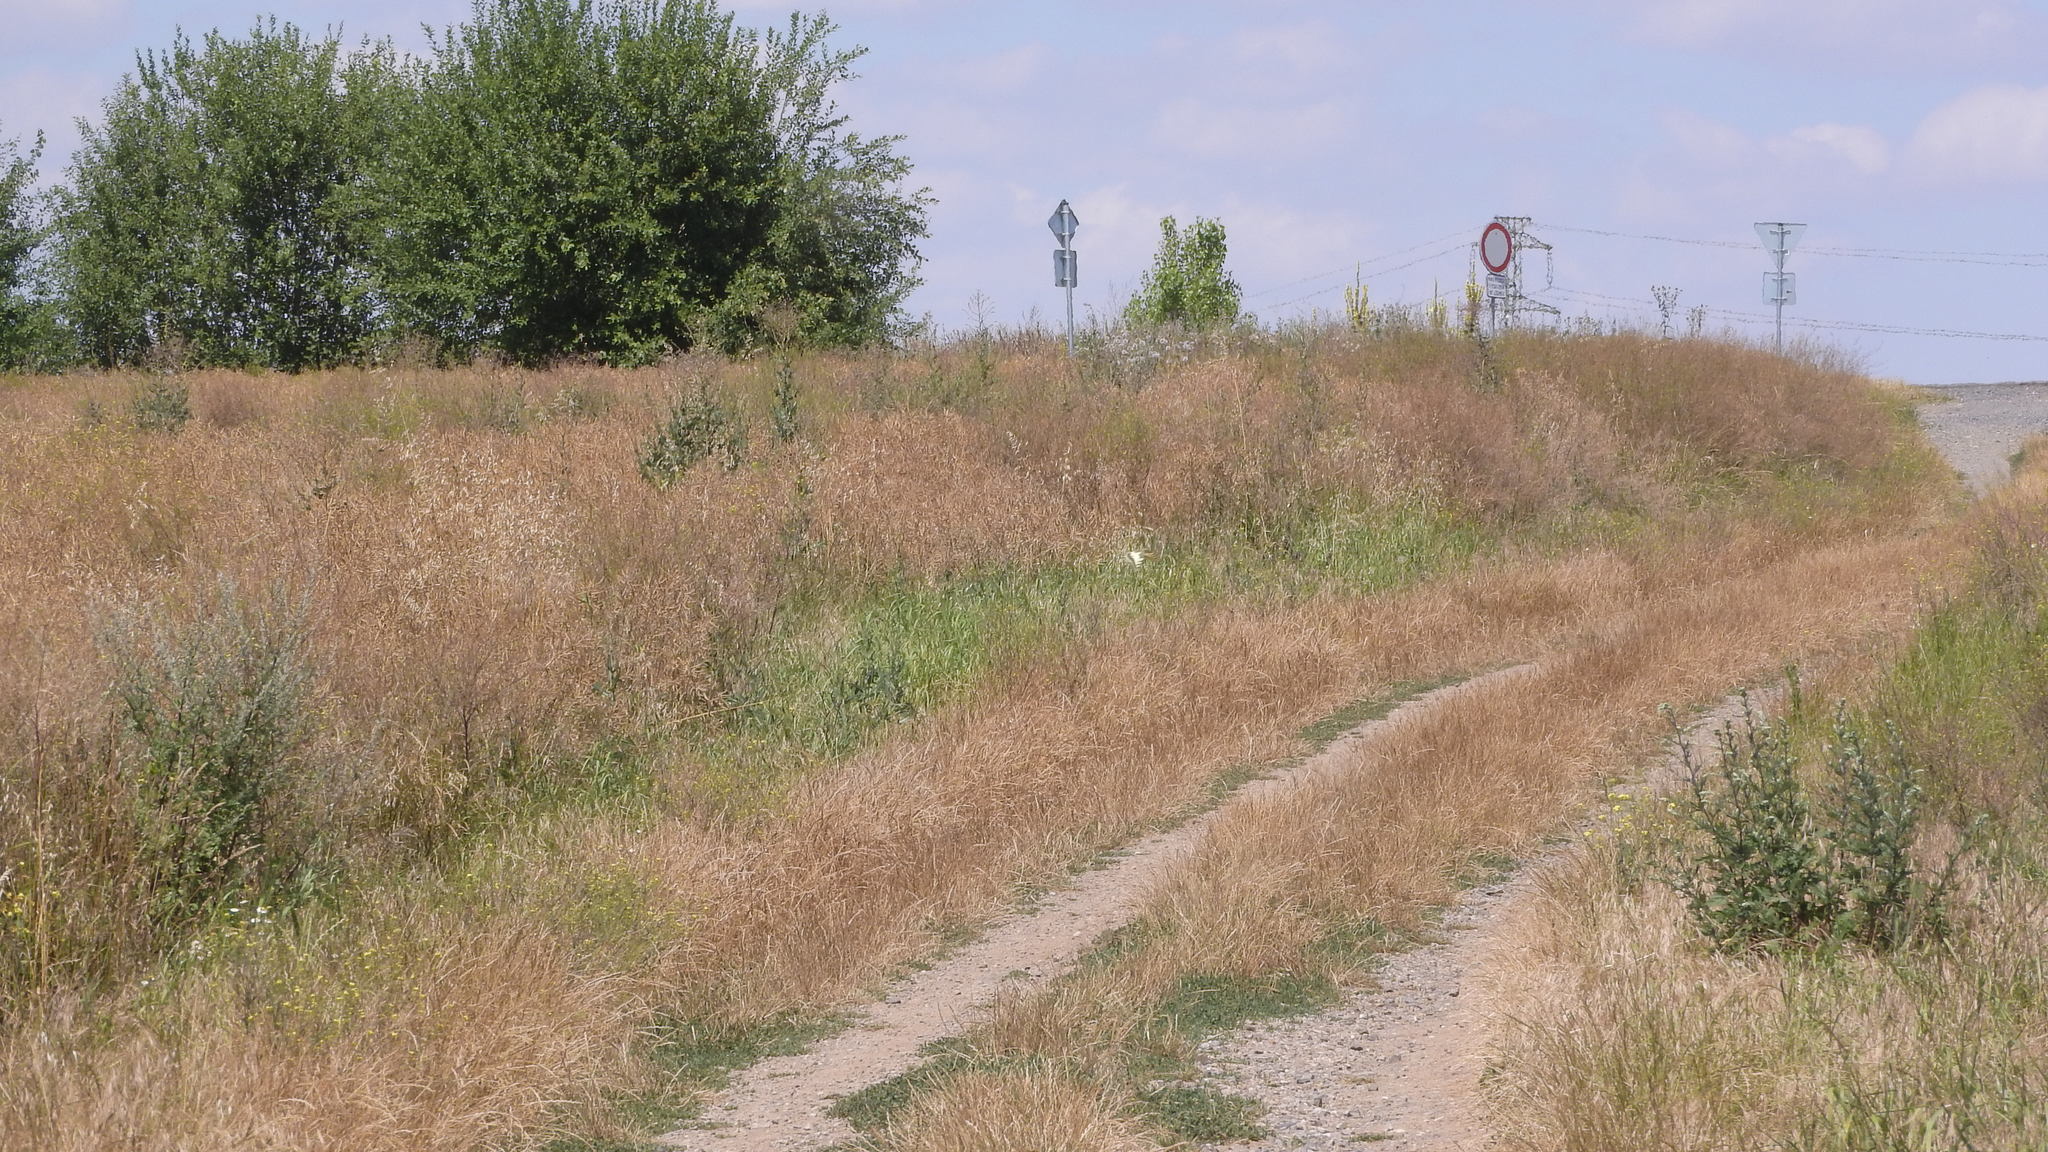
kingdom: Animalia
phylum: Arthropoda
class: Insecta
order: Lepidoptera
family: Papilionidae
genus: Papilio
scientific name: Papilio machaon
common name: Swallowtail
